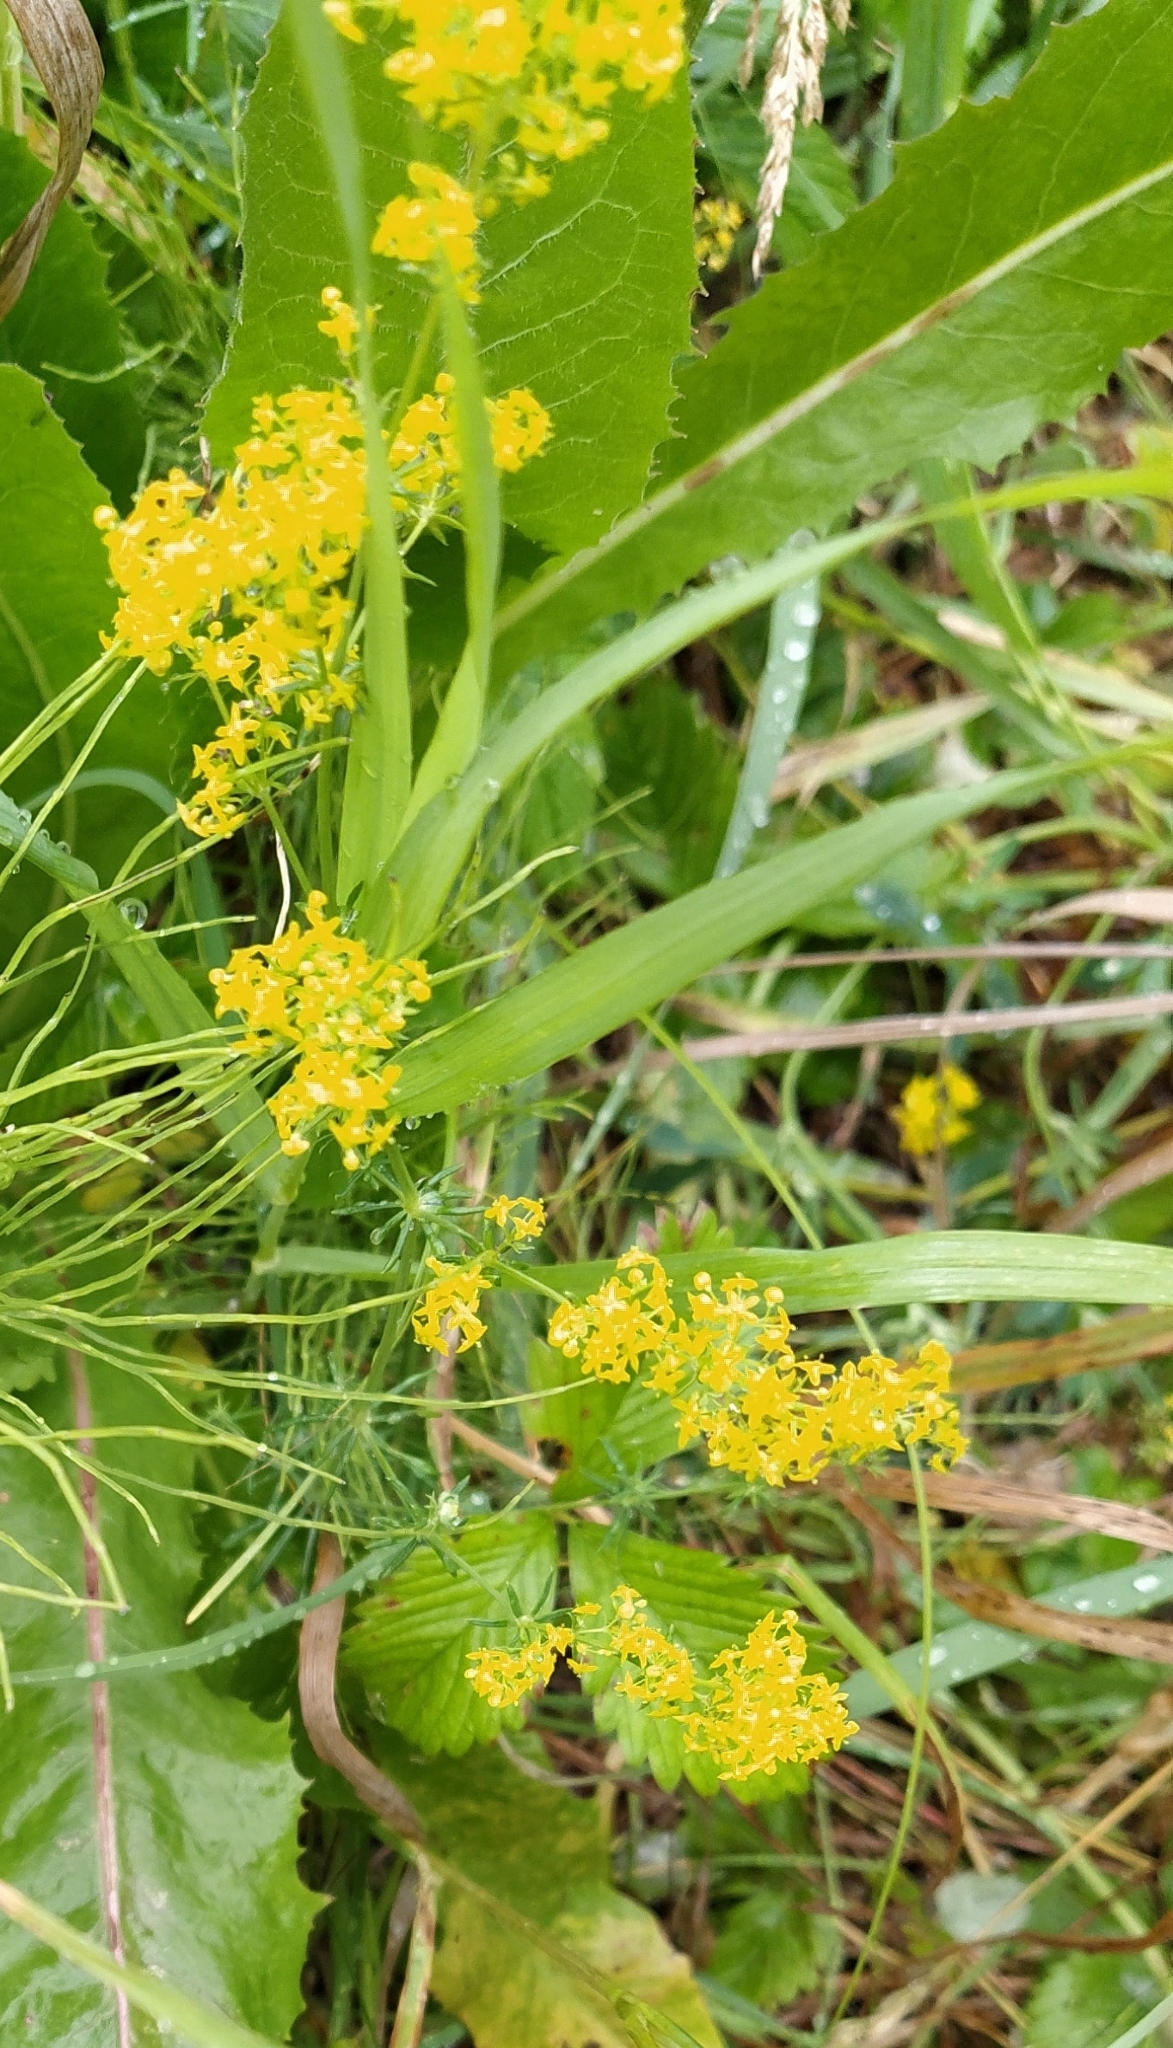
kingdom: Plantae
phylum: Tracheophyta
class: Magnoliopsida
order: Gentianales
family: Rubiaceae
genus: Galium
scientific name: Galium verum
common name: Lady's bedstraw
